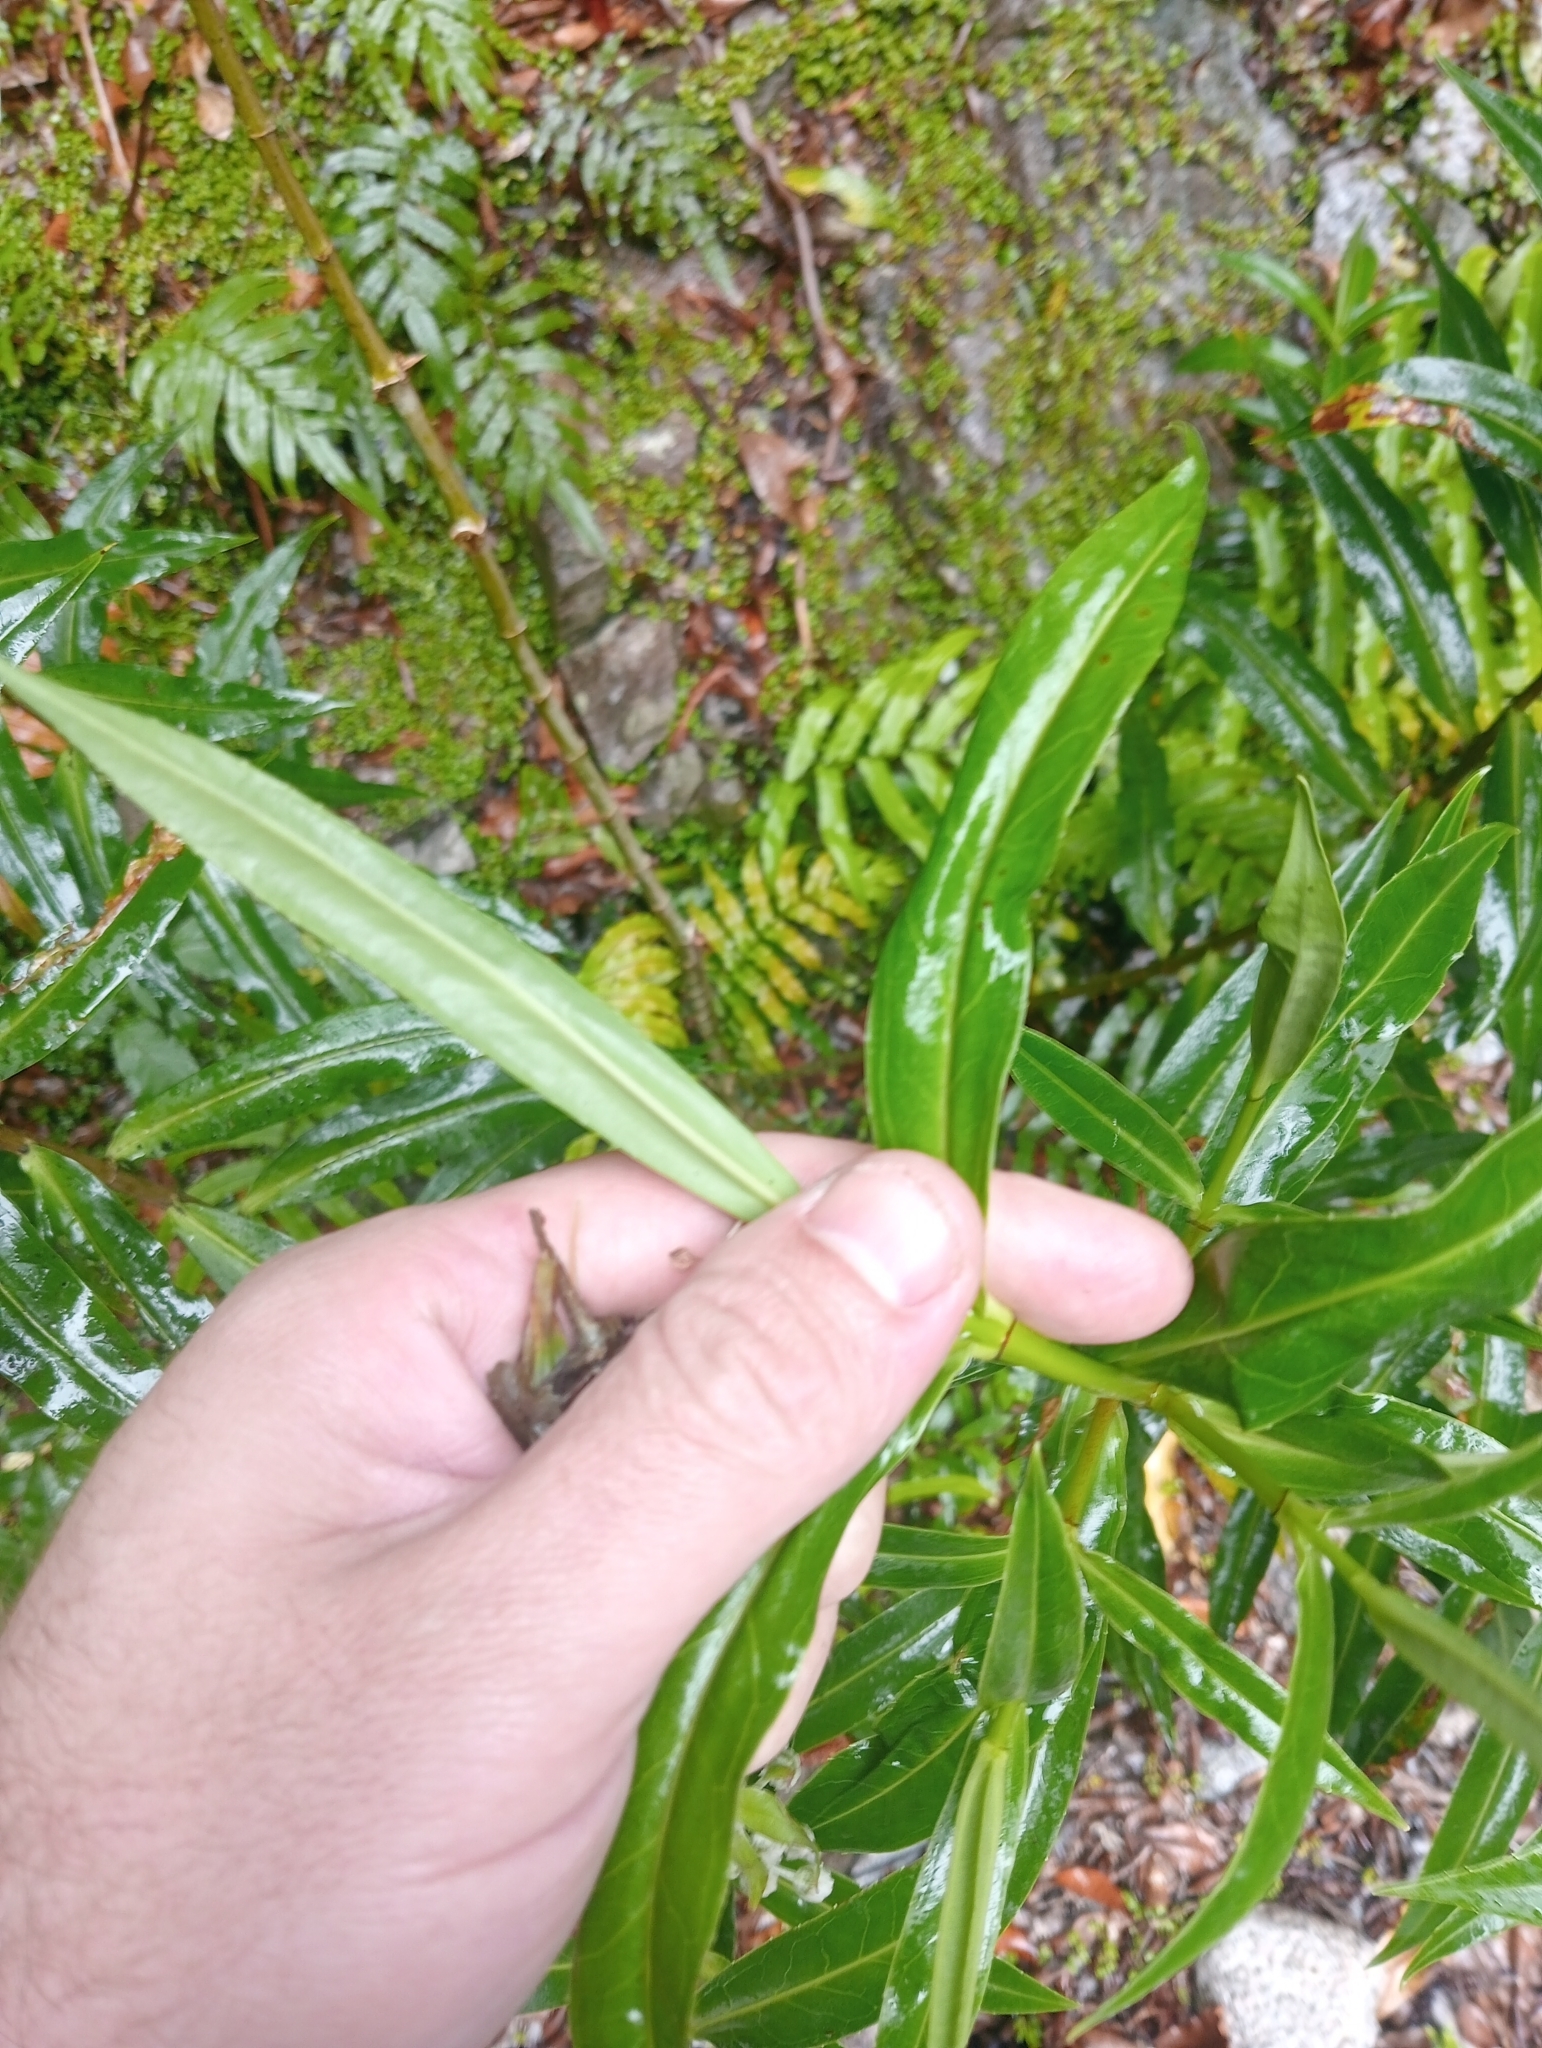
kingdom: Plantae
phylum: Tracheophyta
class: Magnoliopsida
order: Lamiales
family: Plantaginaceae
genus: Veronica
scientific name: Veronica salicifolia
